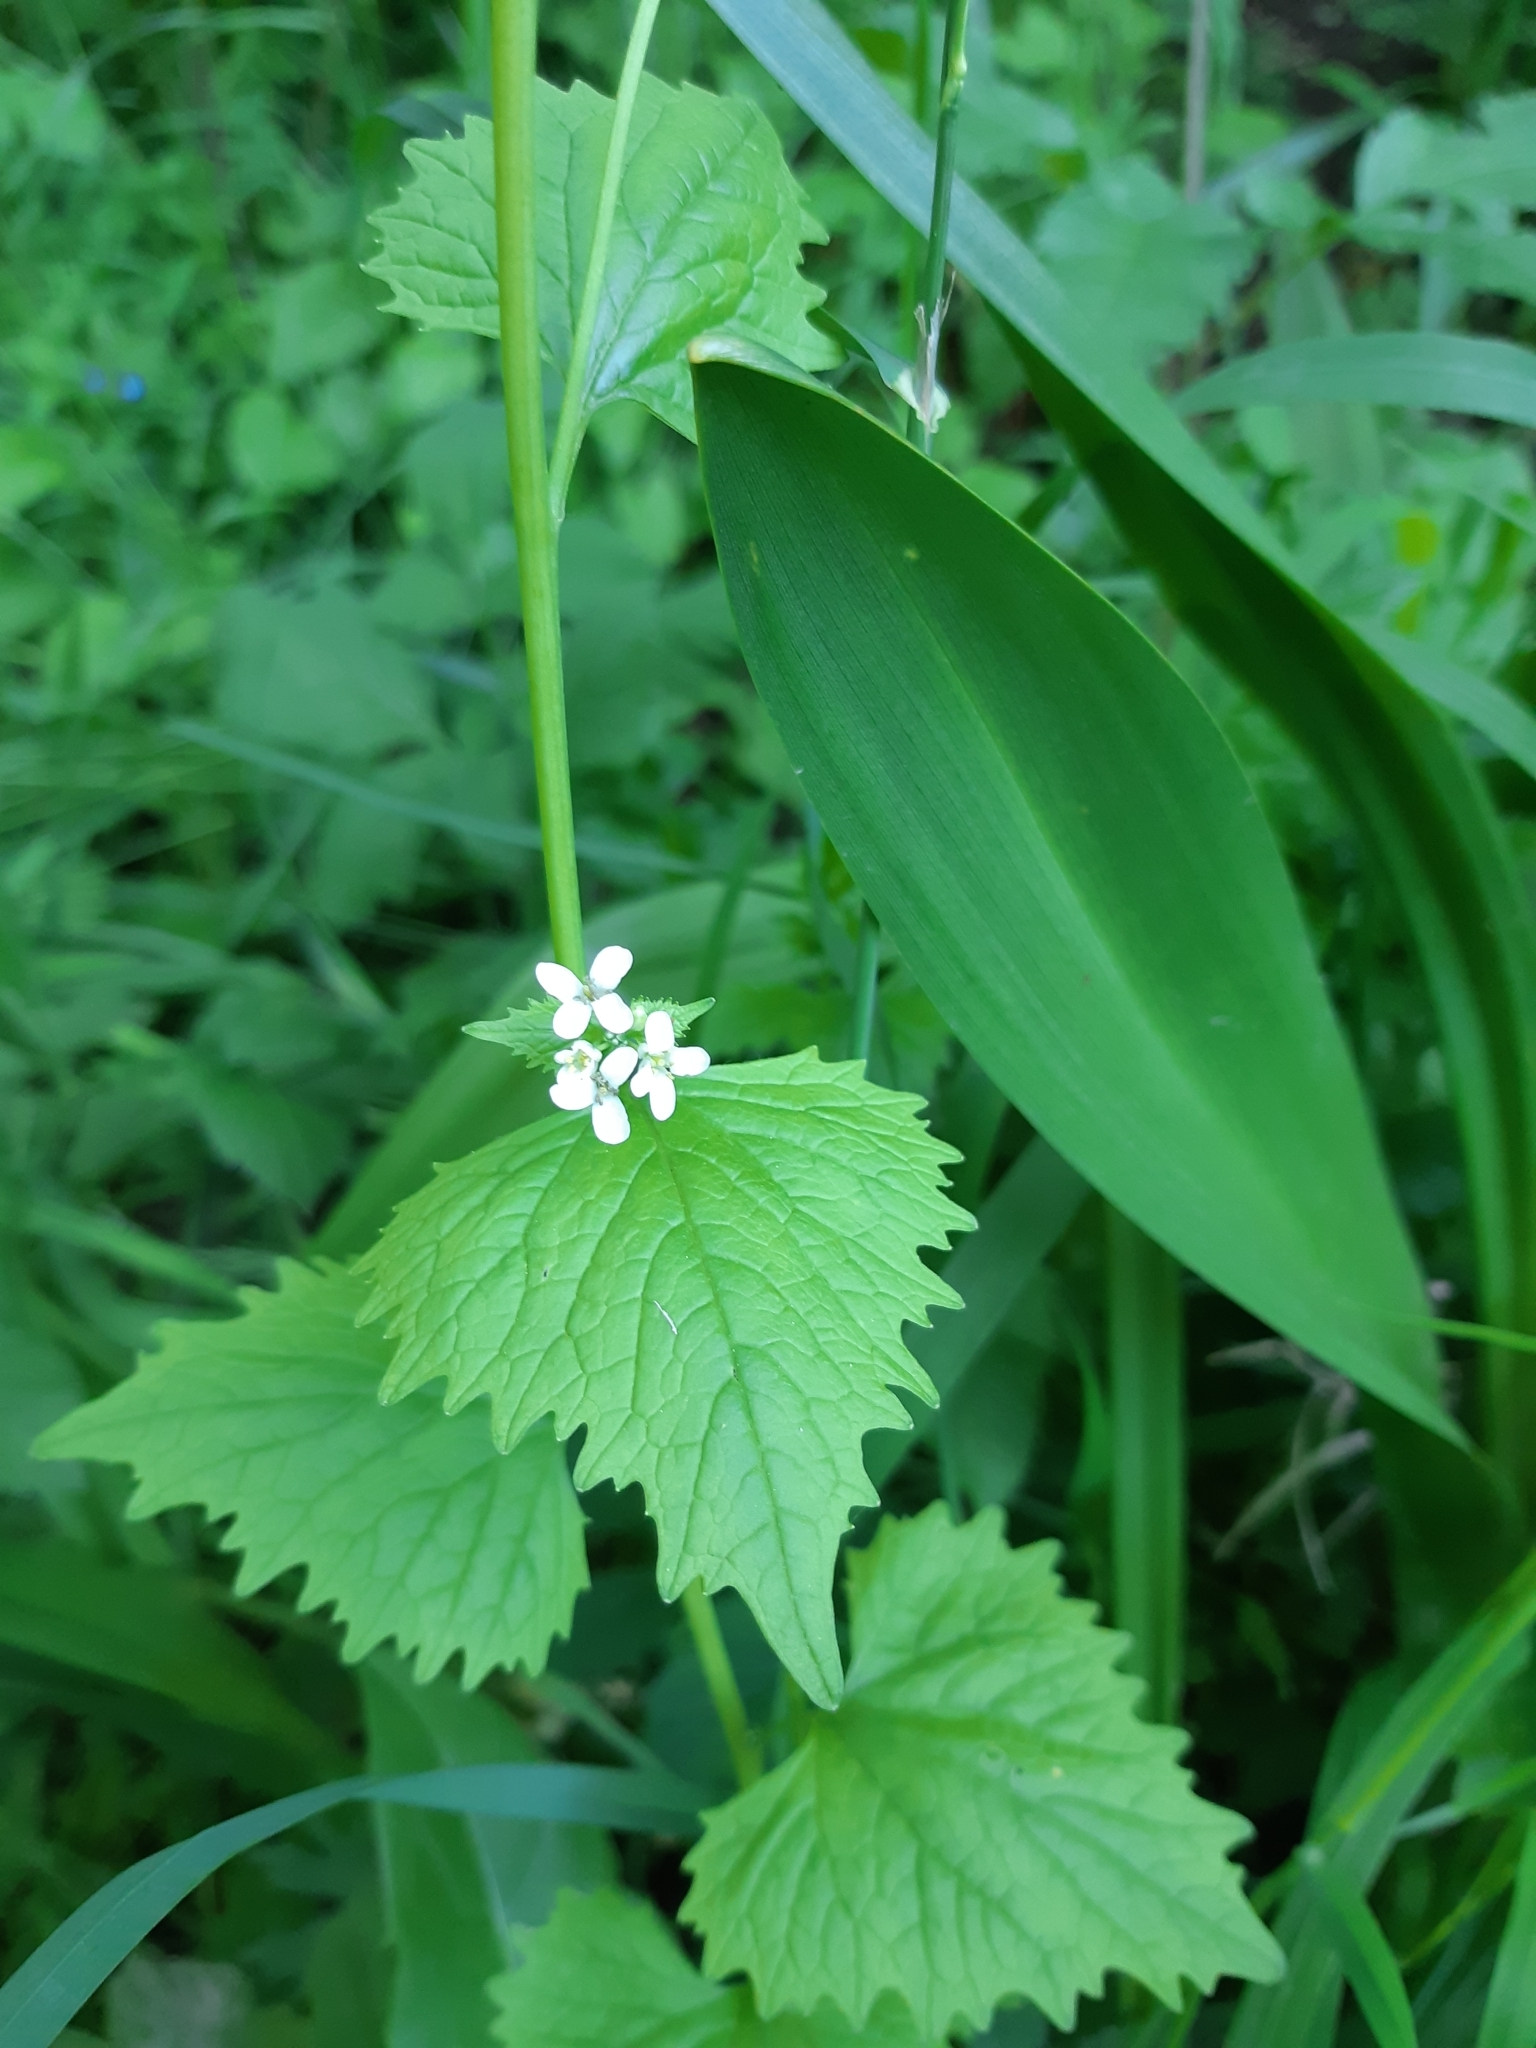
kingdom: Plantae
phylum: Tracheophyta
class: Magnoliopsida
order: Brassicales
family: Brassicaceae
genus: Alliaria
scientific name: Alliaria petiolata
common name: Garlic mustard
